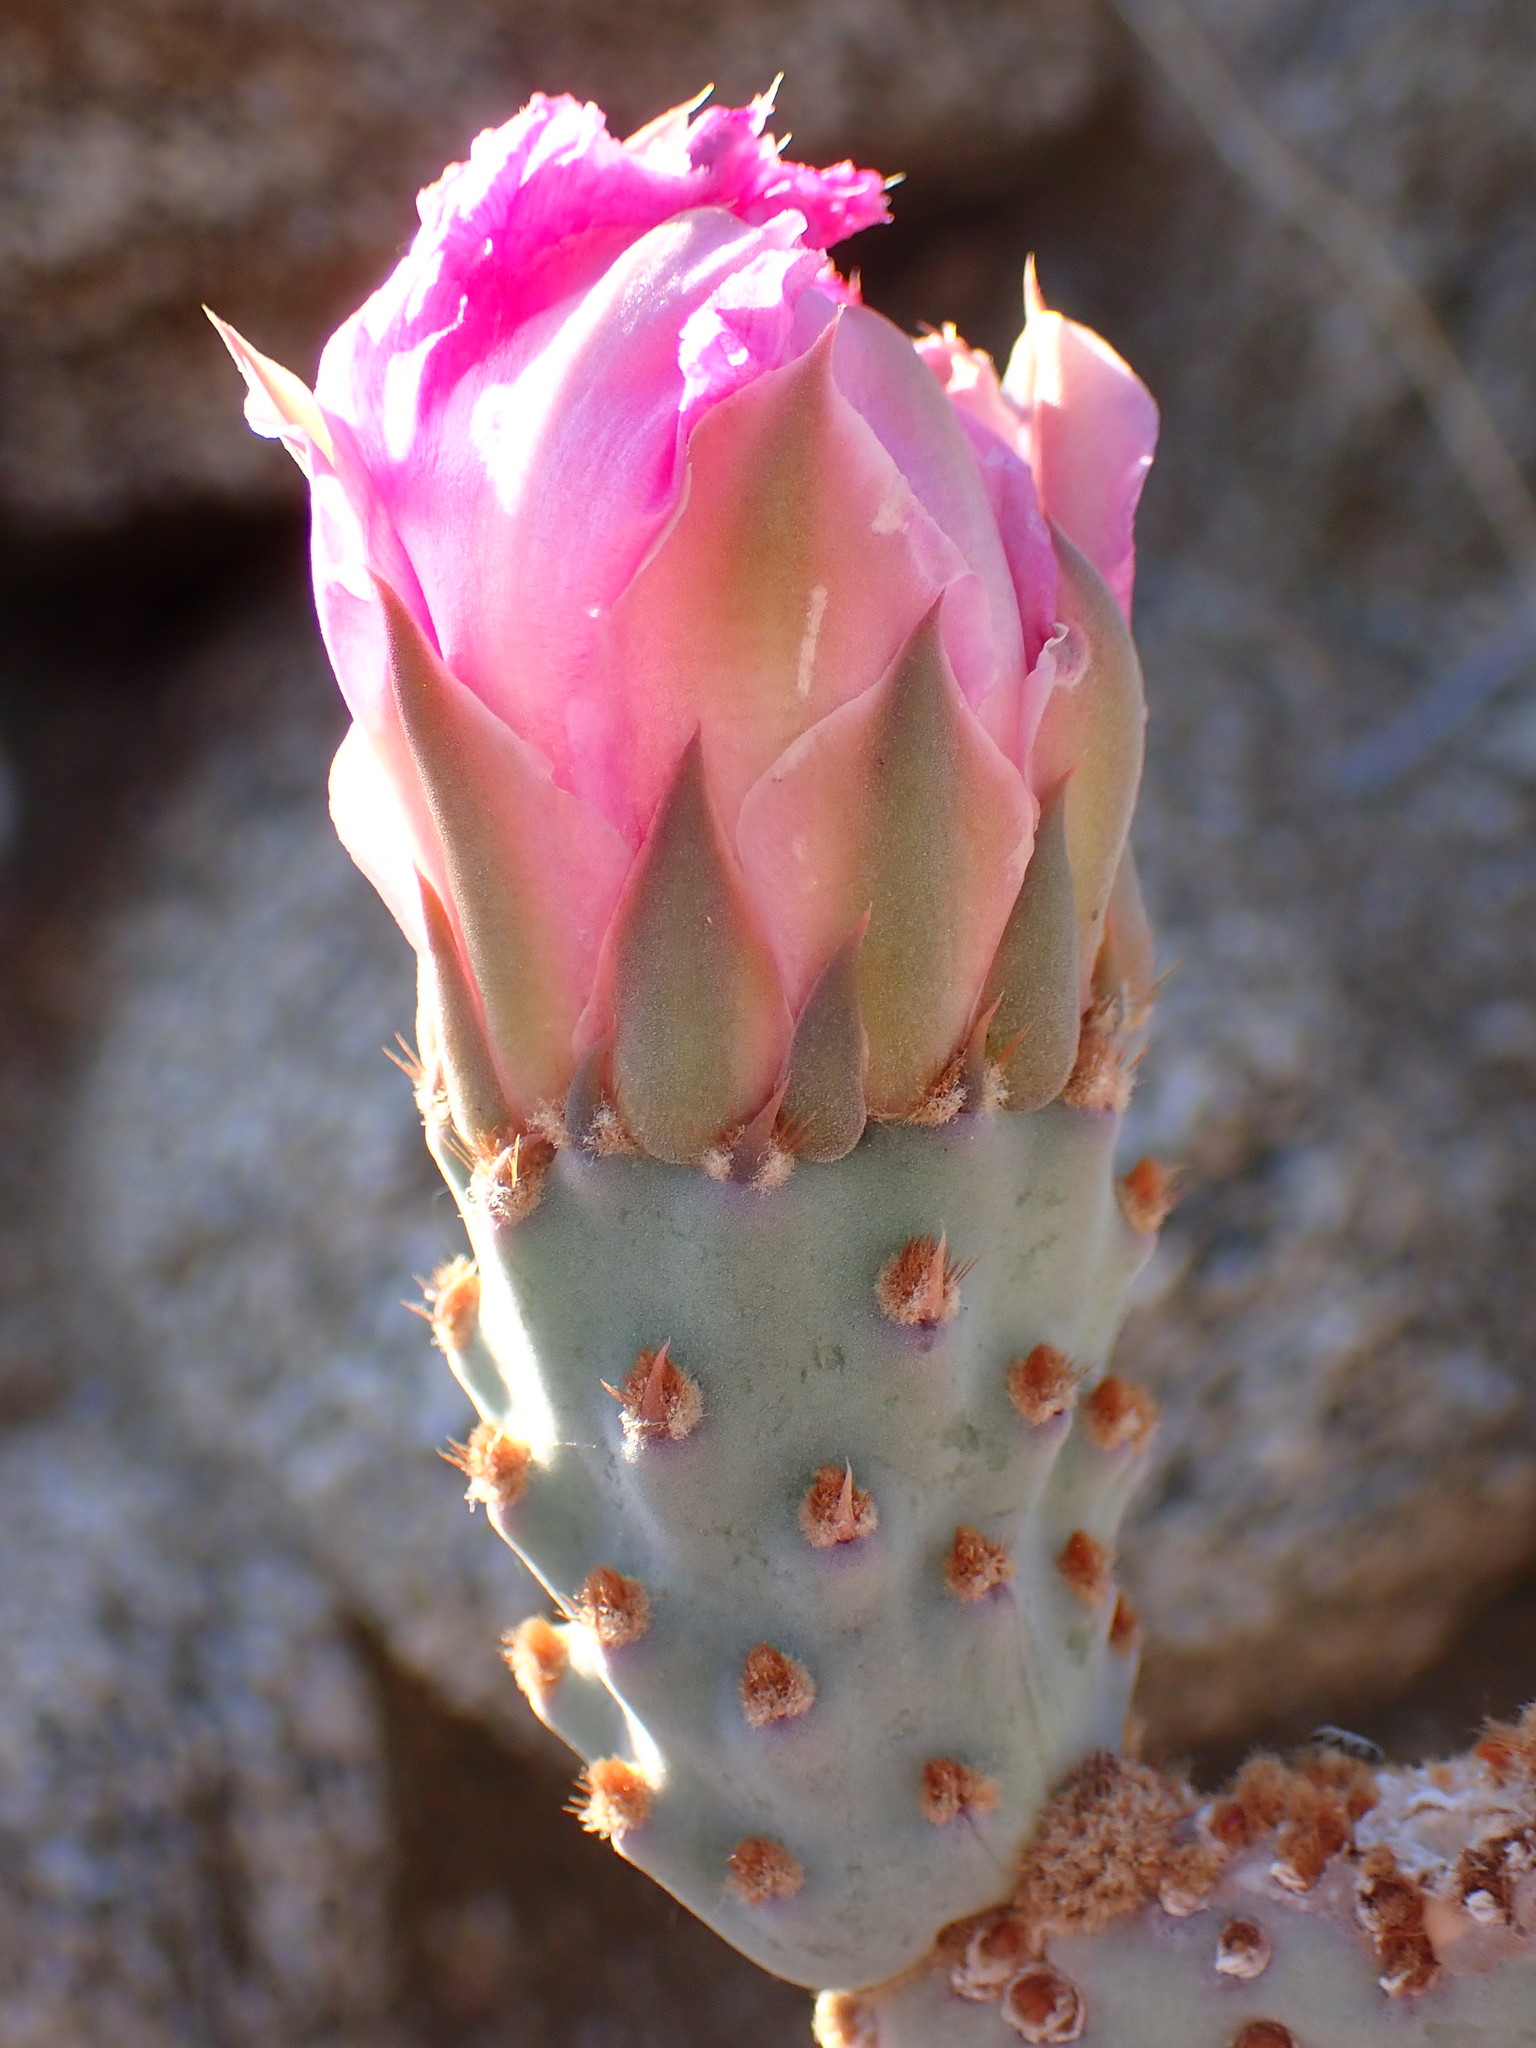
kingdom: Plantae
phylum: Tracheophyta
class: Magnoliopsida
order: Caryophyllales
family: Cactaceae
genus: Opuntia
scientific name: Opuntia basilaris
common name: Beavertail prickly-pear
